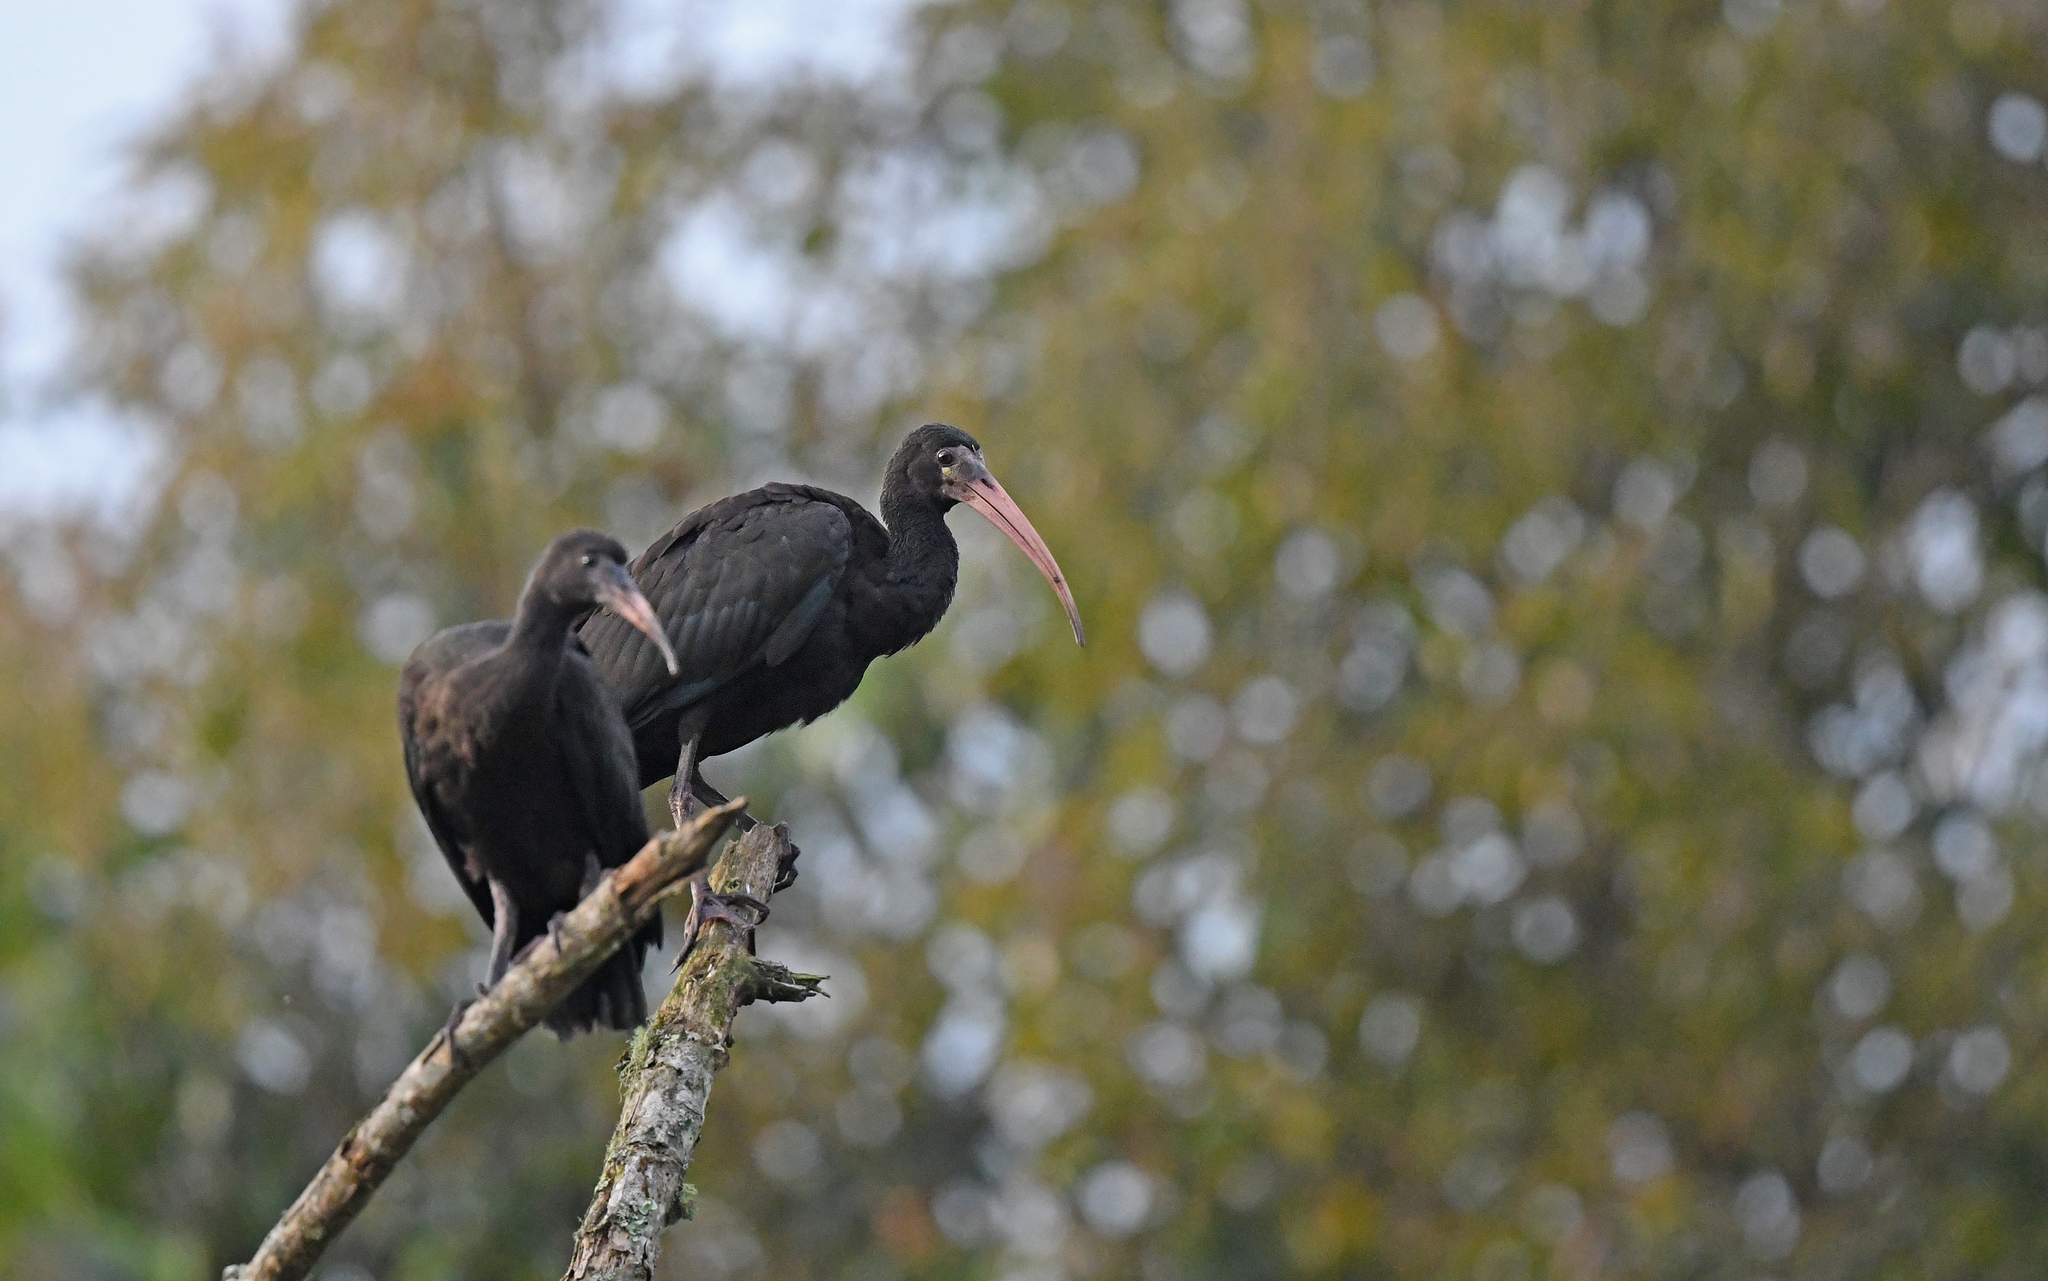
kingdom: Animalia
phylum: Chordata
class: Aves
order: Pelecaniformes
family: Threskiornithidae
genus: Phimosus
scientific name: Phimosus infuscatus
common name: Bare-faced ibis
